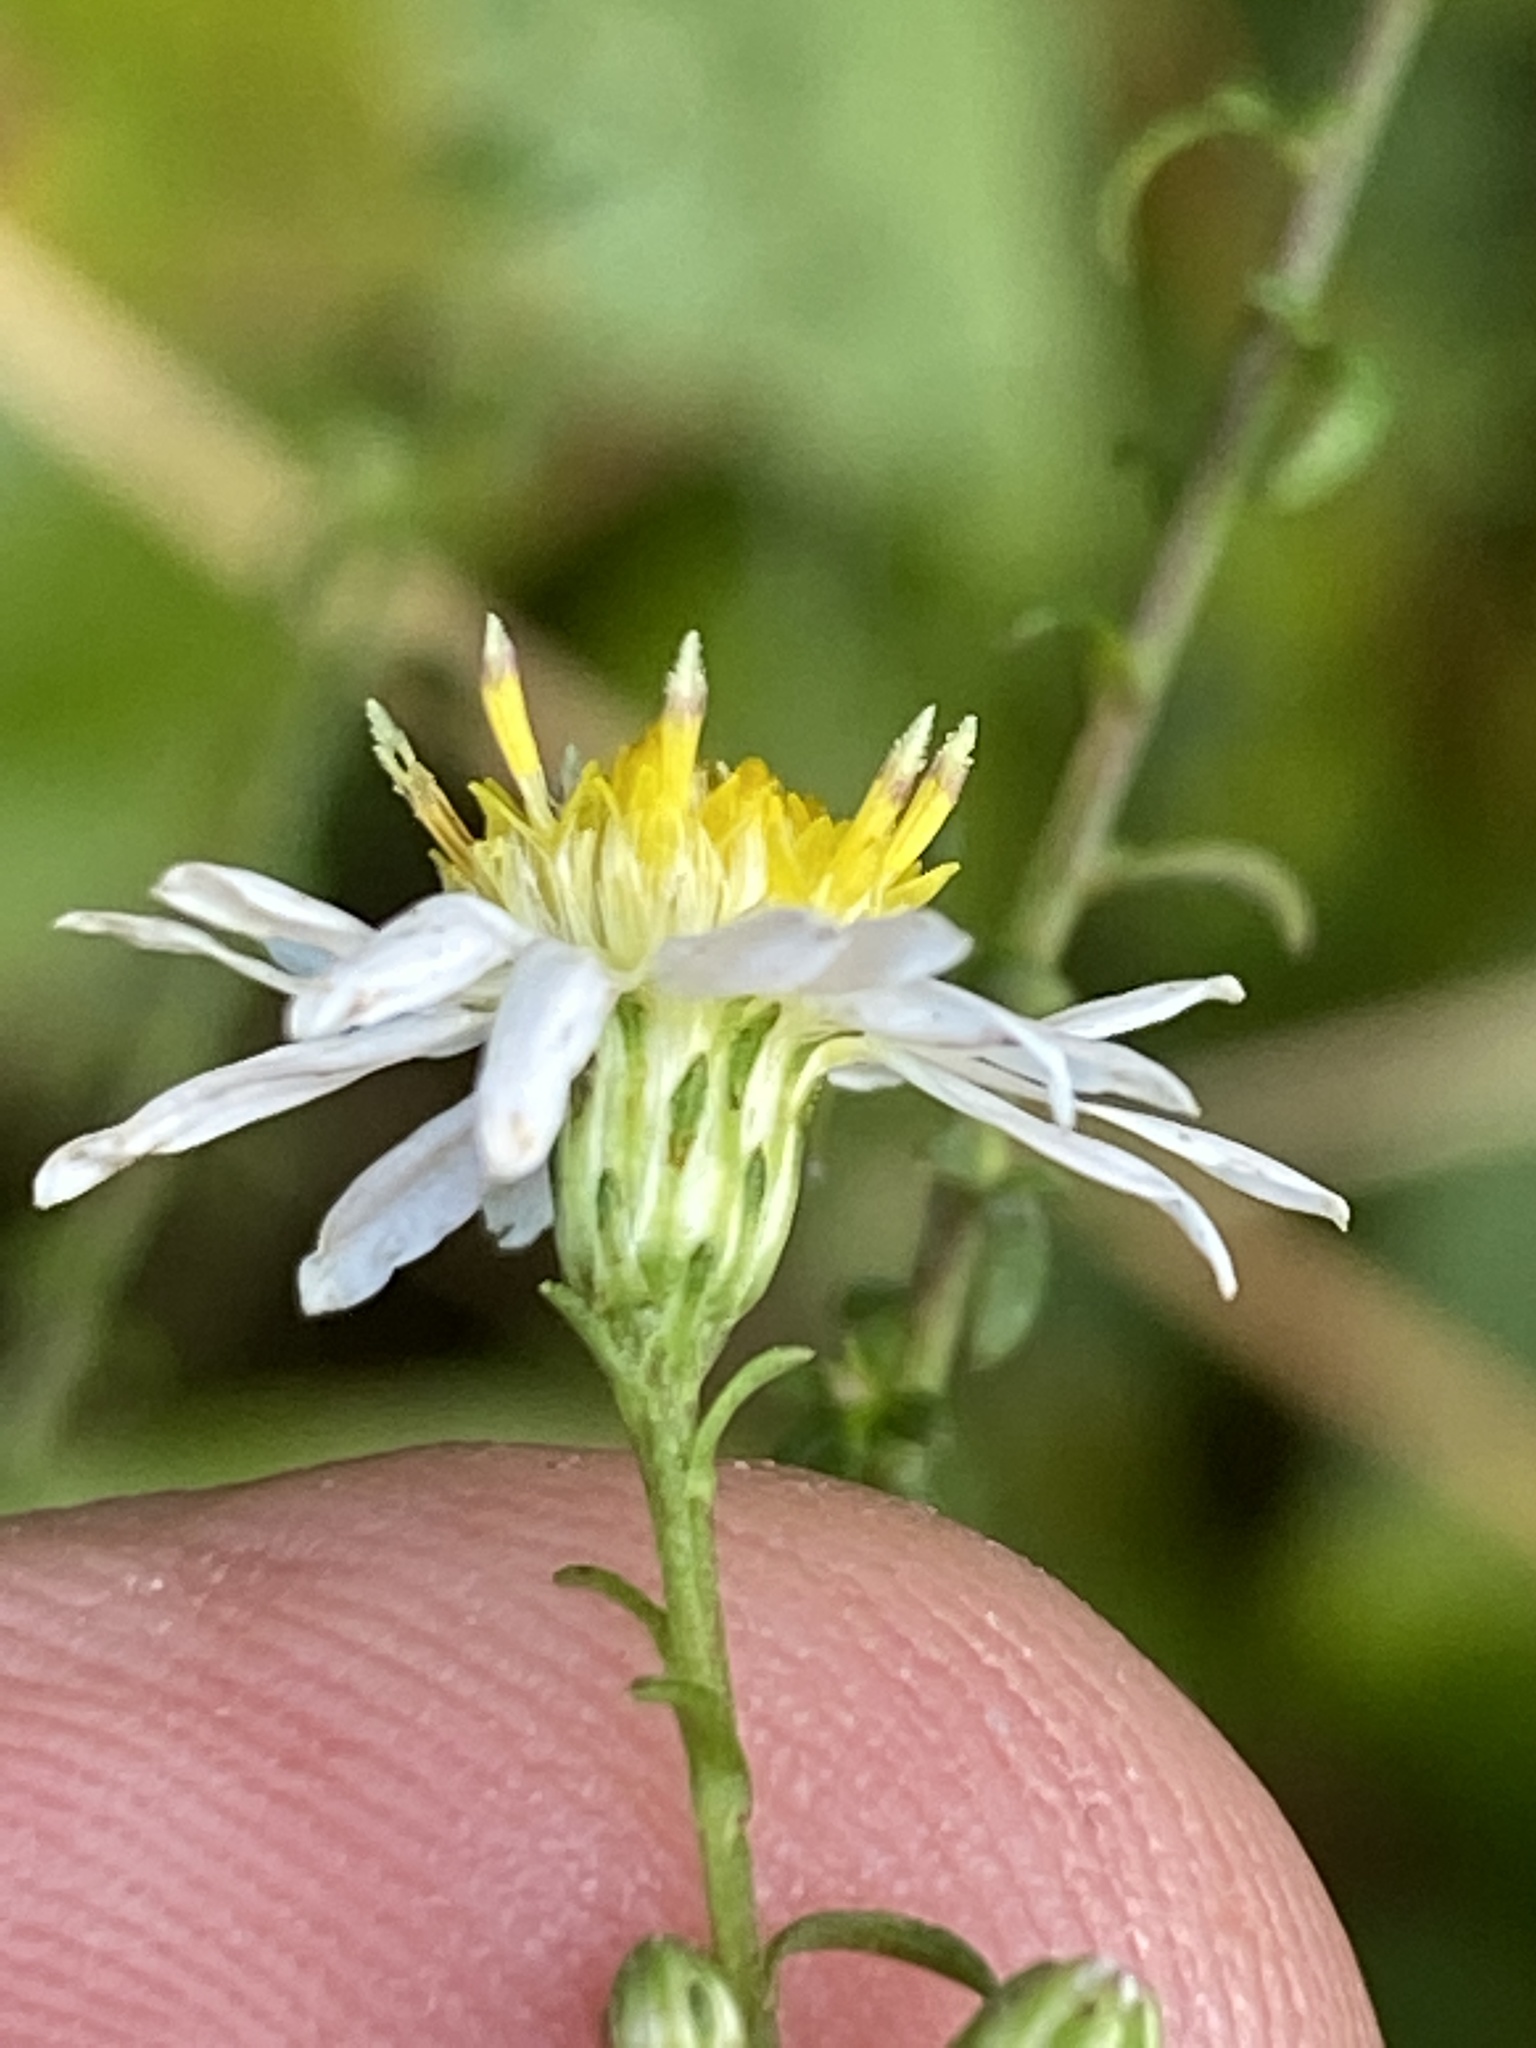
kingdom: Plantae
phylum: Tracheophyta
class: Magnoliopsida
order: Asterales
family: Asteraceae
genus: Symphyotrichum
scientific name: Symphyotrichum dumosum
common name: Bushy aster
